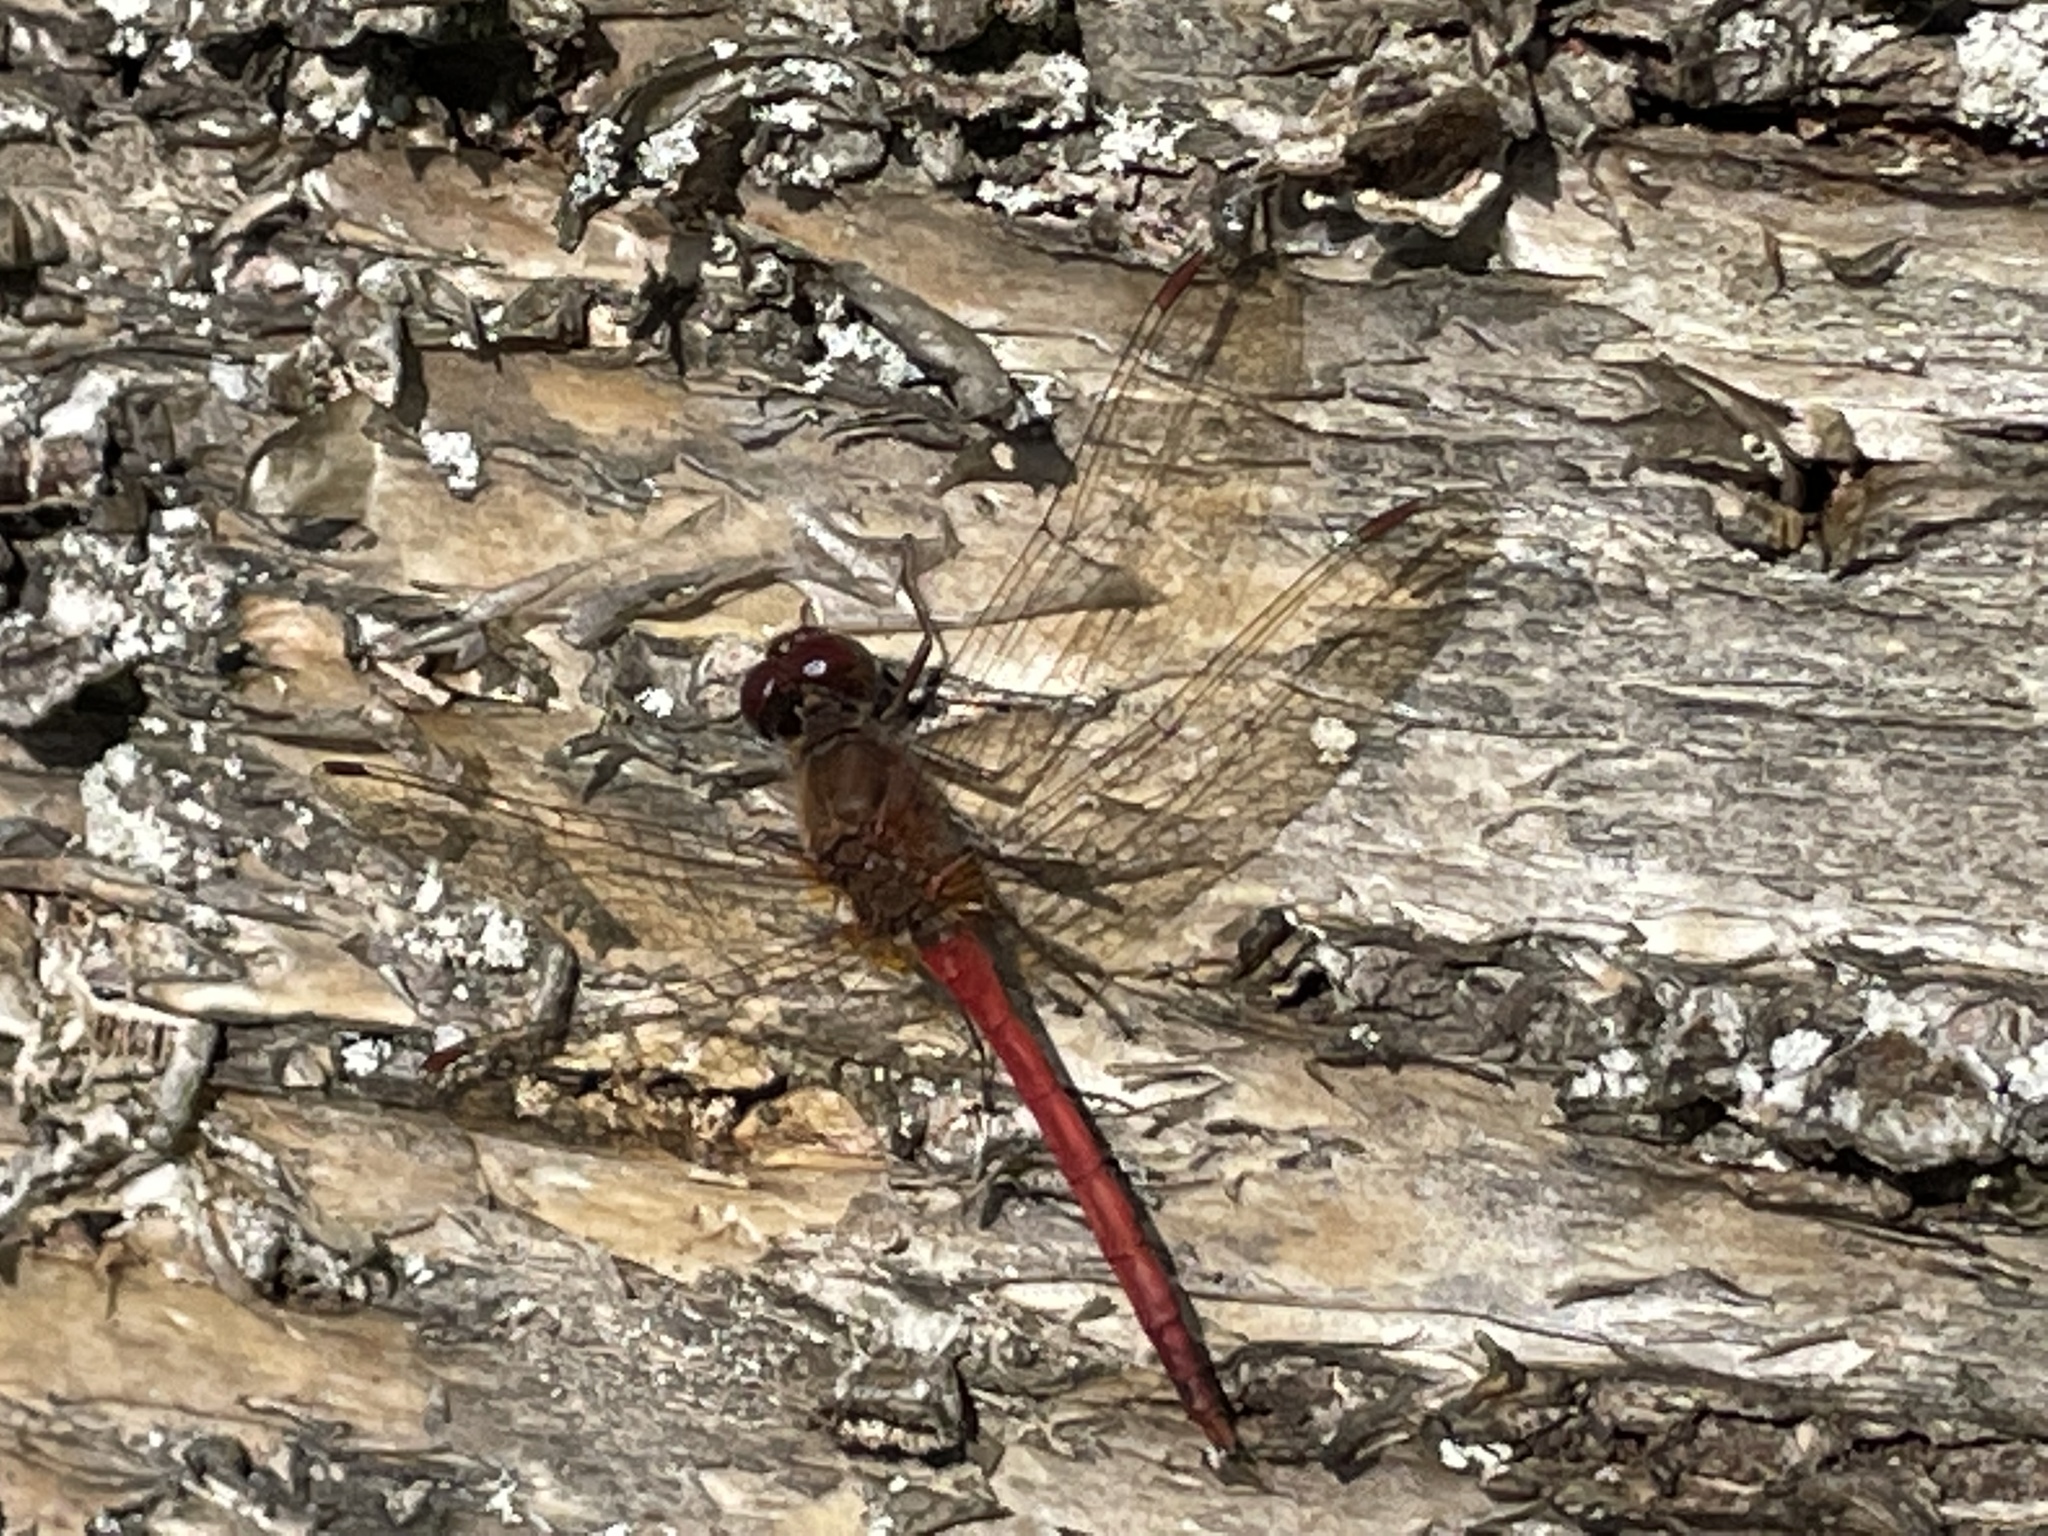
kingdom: Animalia
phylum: Arthropoda
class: Insecta
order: Odonata
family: Libellulidae
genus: Sympetrum
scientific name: Sympetrum vicinum
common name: Autumn meadowhawk
